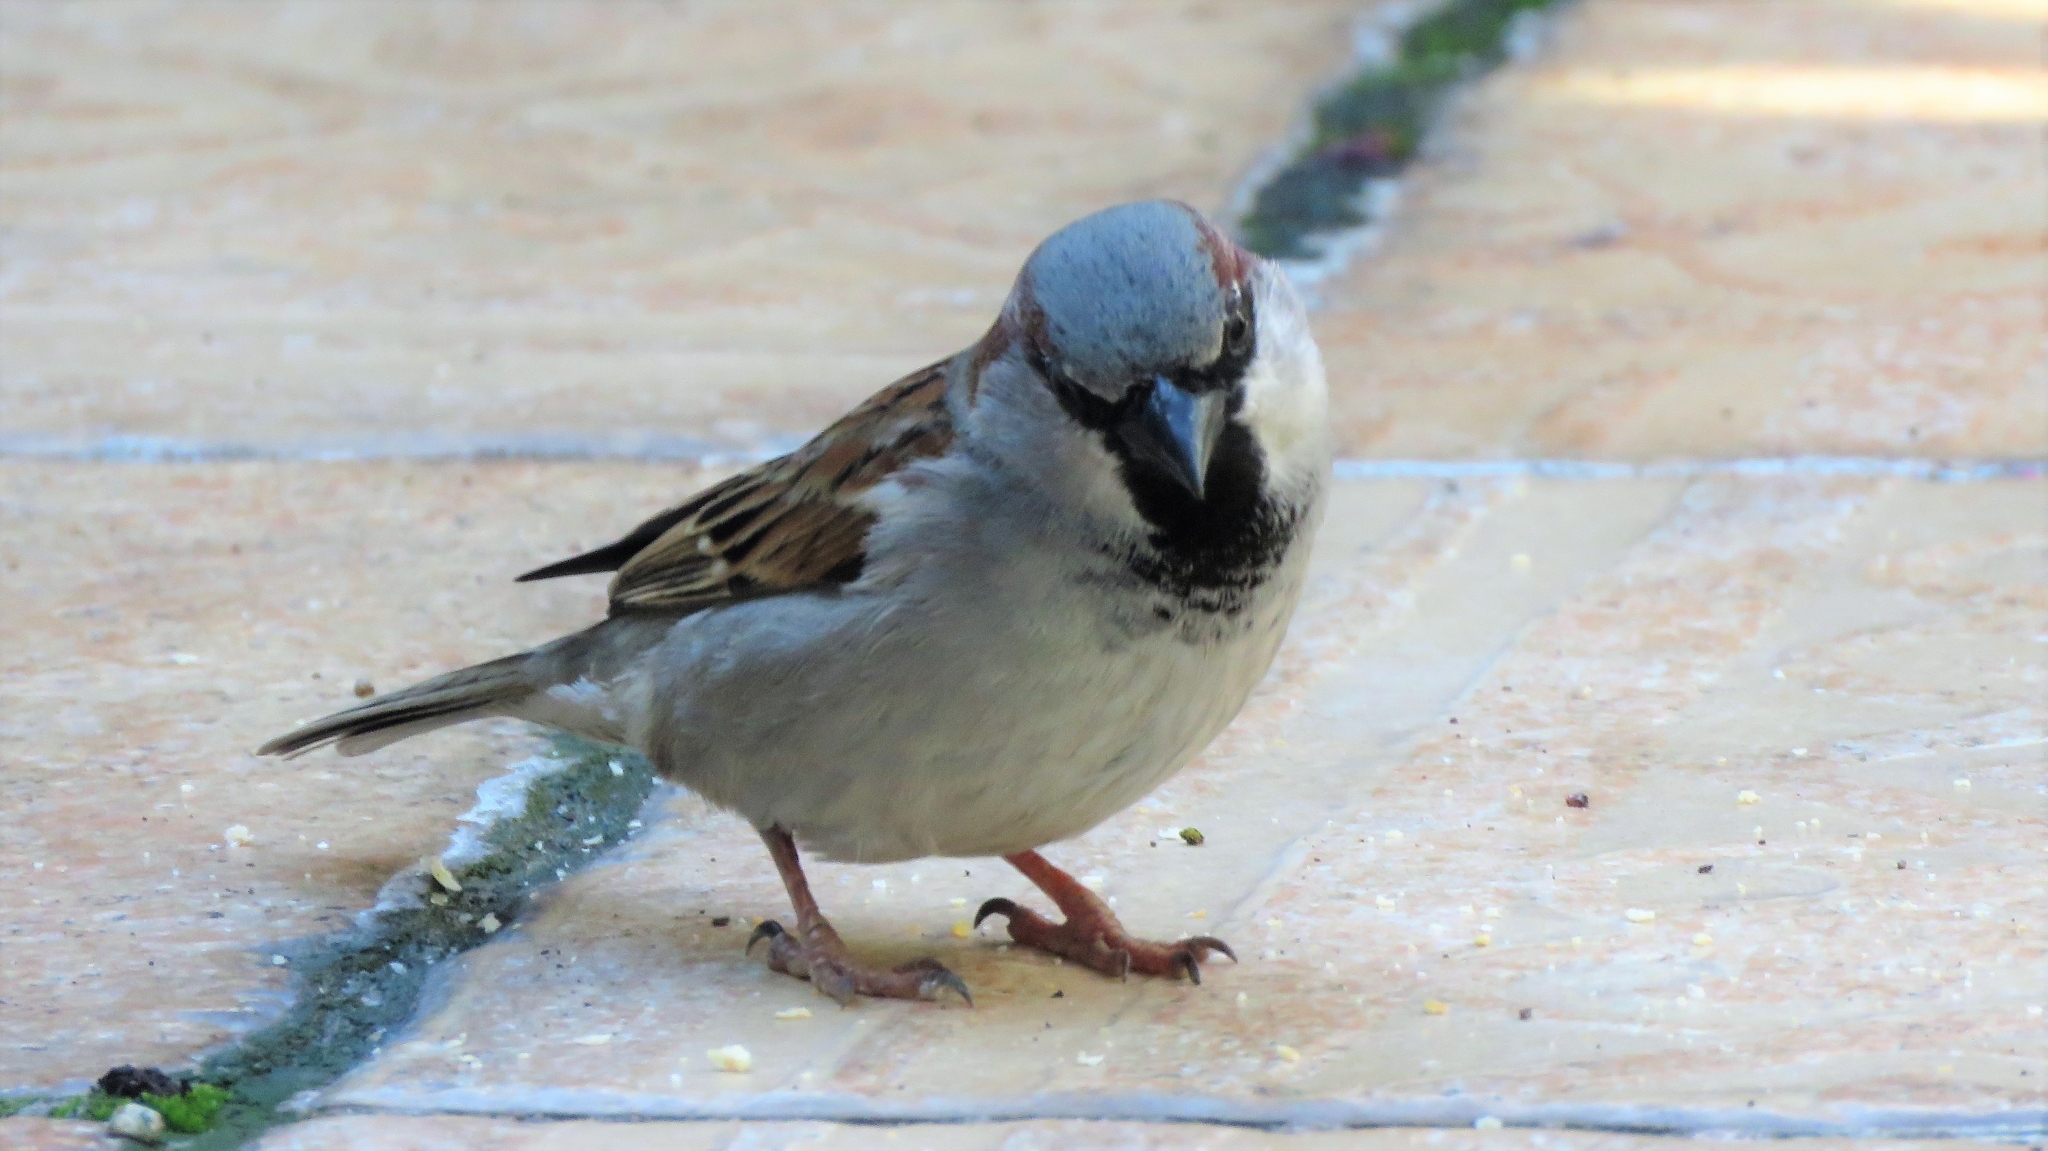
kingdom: Animalia
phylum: Chordata
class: Aves
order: Passeriformes
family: Passeridae
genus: Passer
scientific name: Passer domesticus
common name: House sparrow
